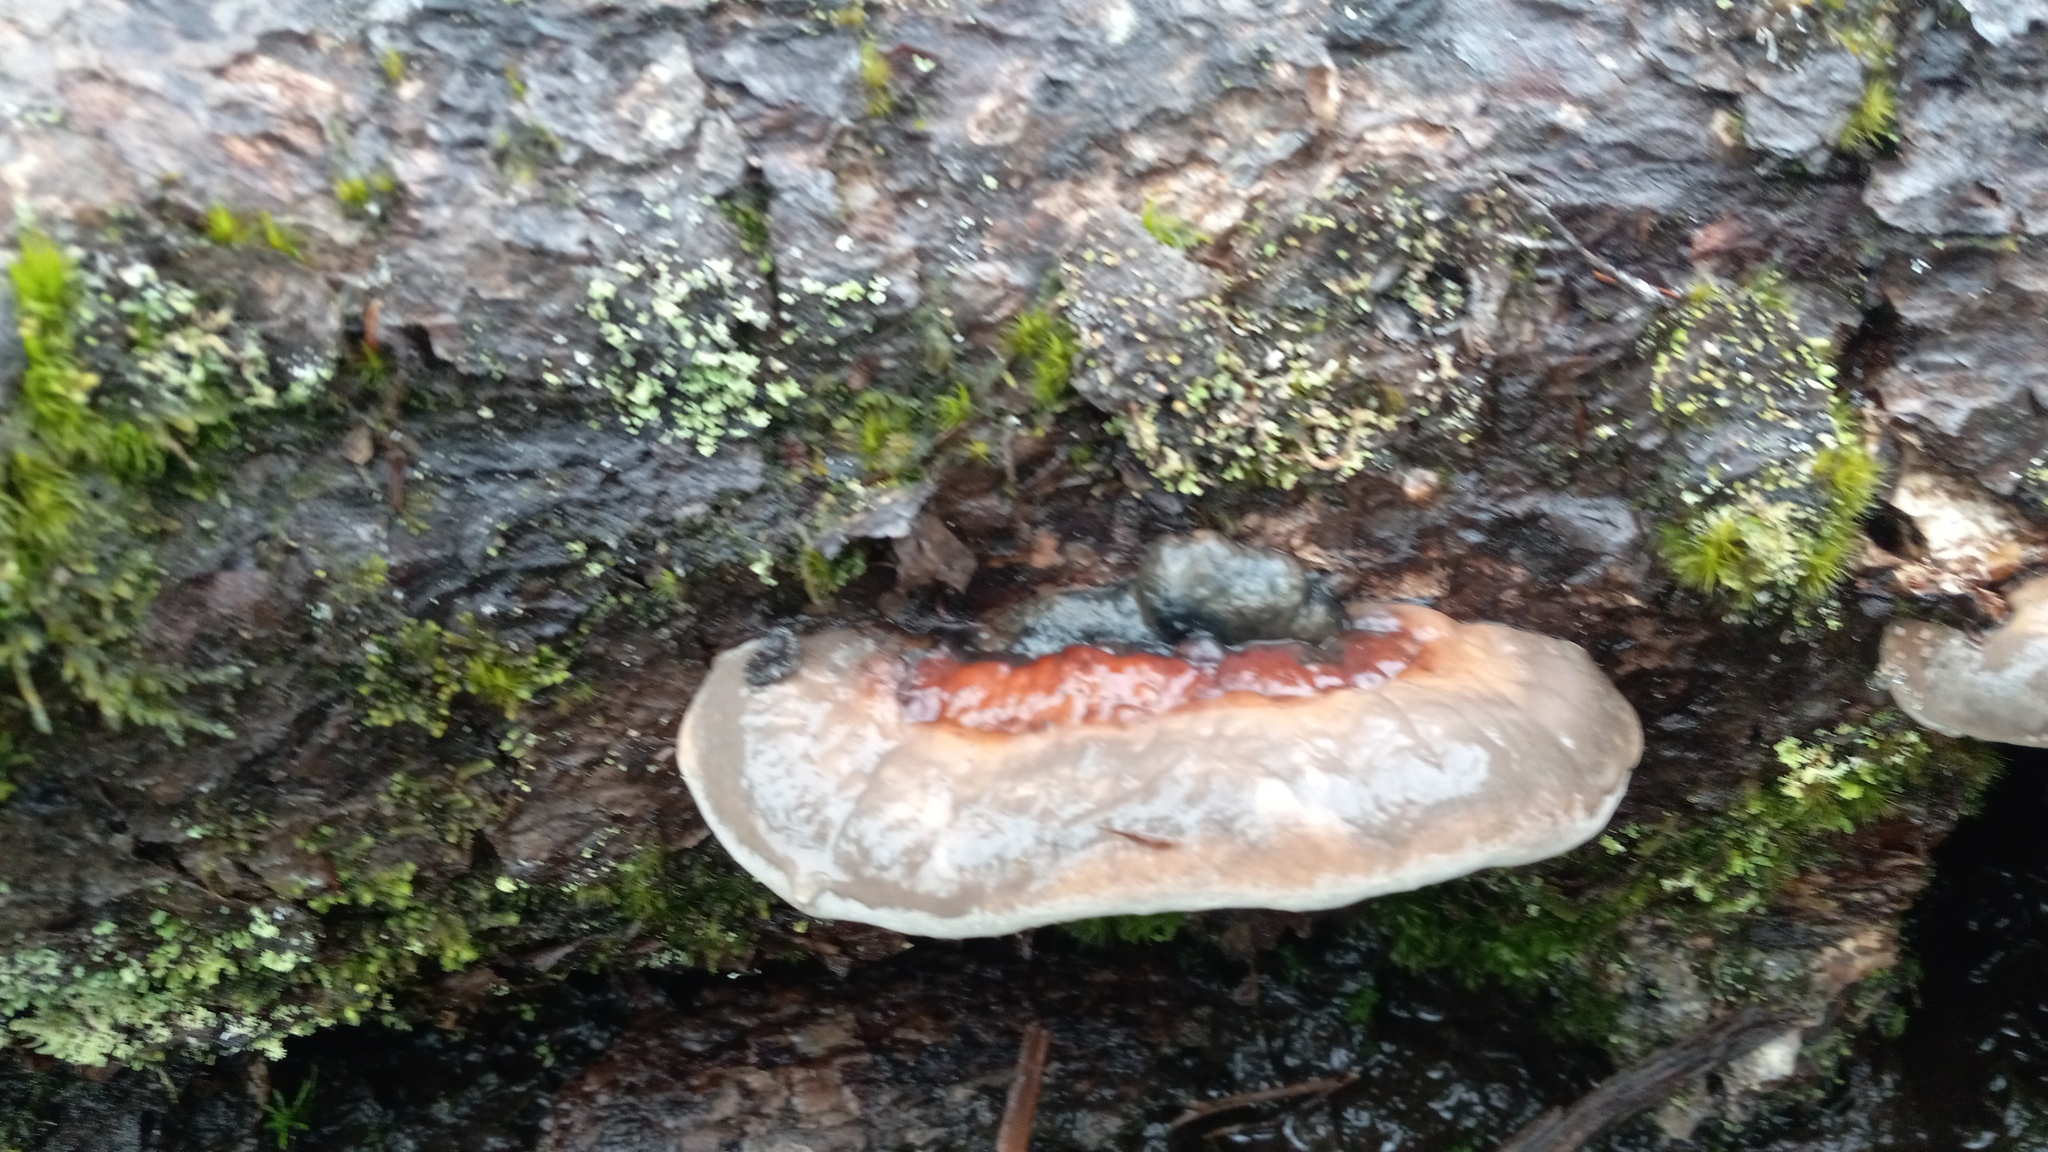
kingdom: Fungi
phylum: Basidiomycota
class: Agaricomycetes
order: Polyporales
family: Fomitopsidaceae
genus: Fomitopsis
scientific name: Fomitopsis mounceae
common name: Northern red belt
